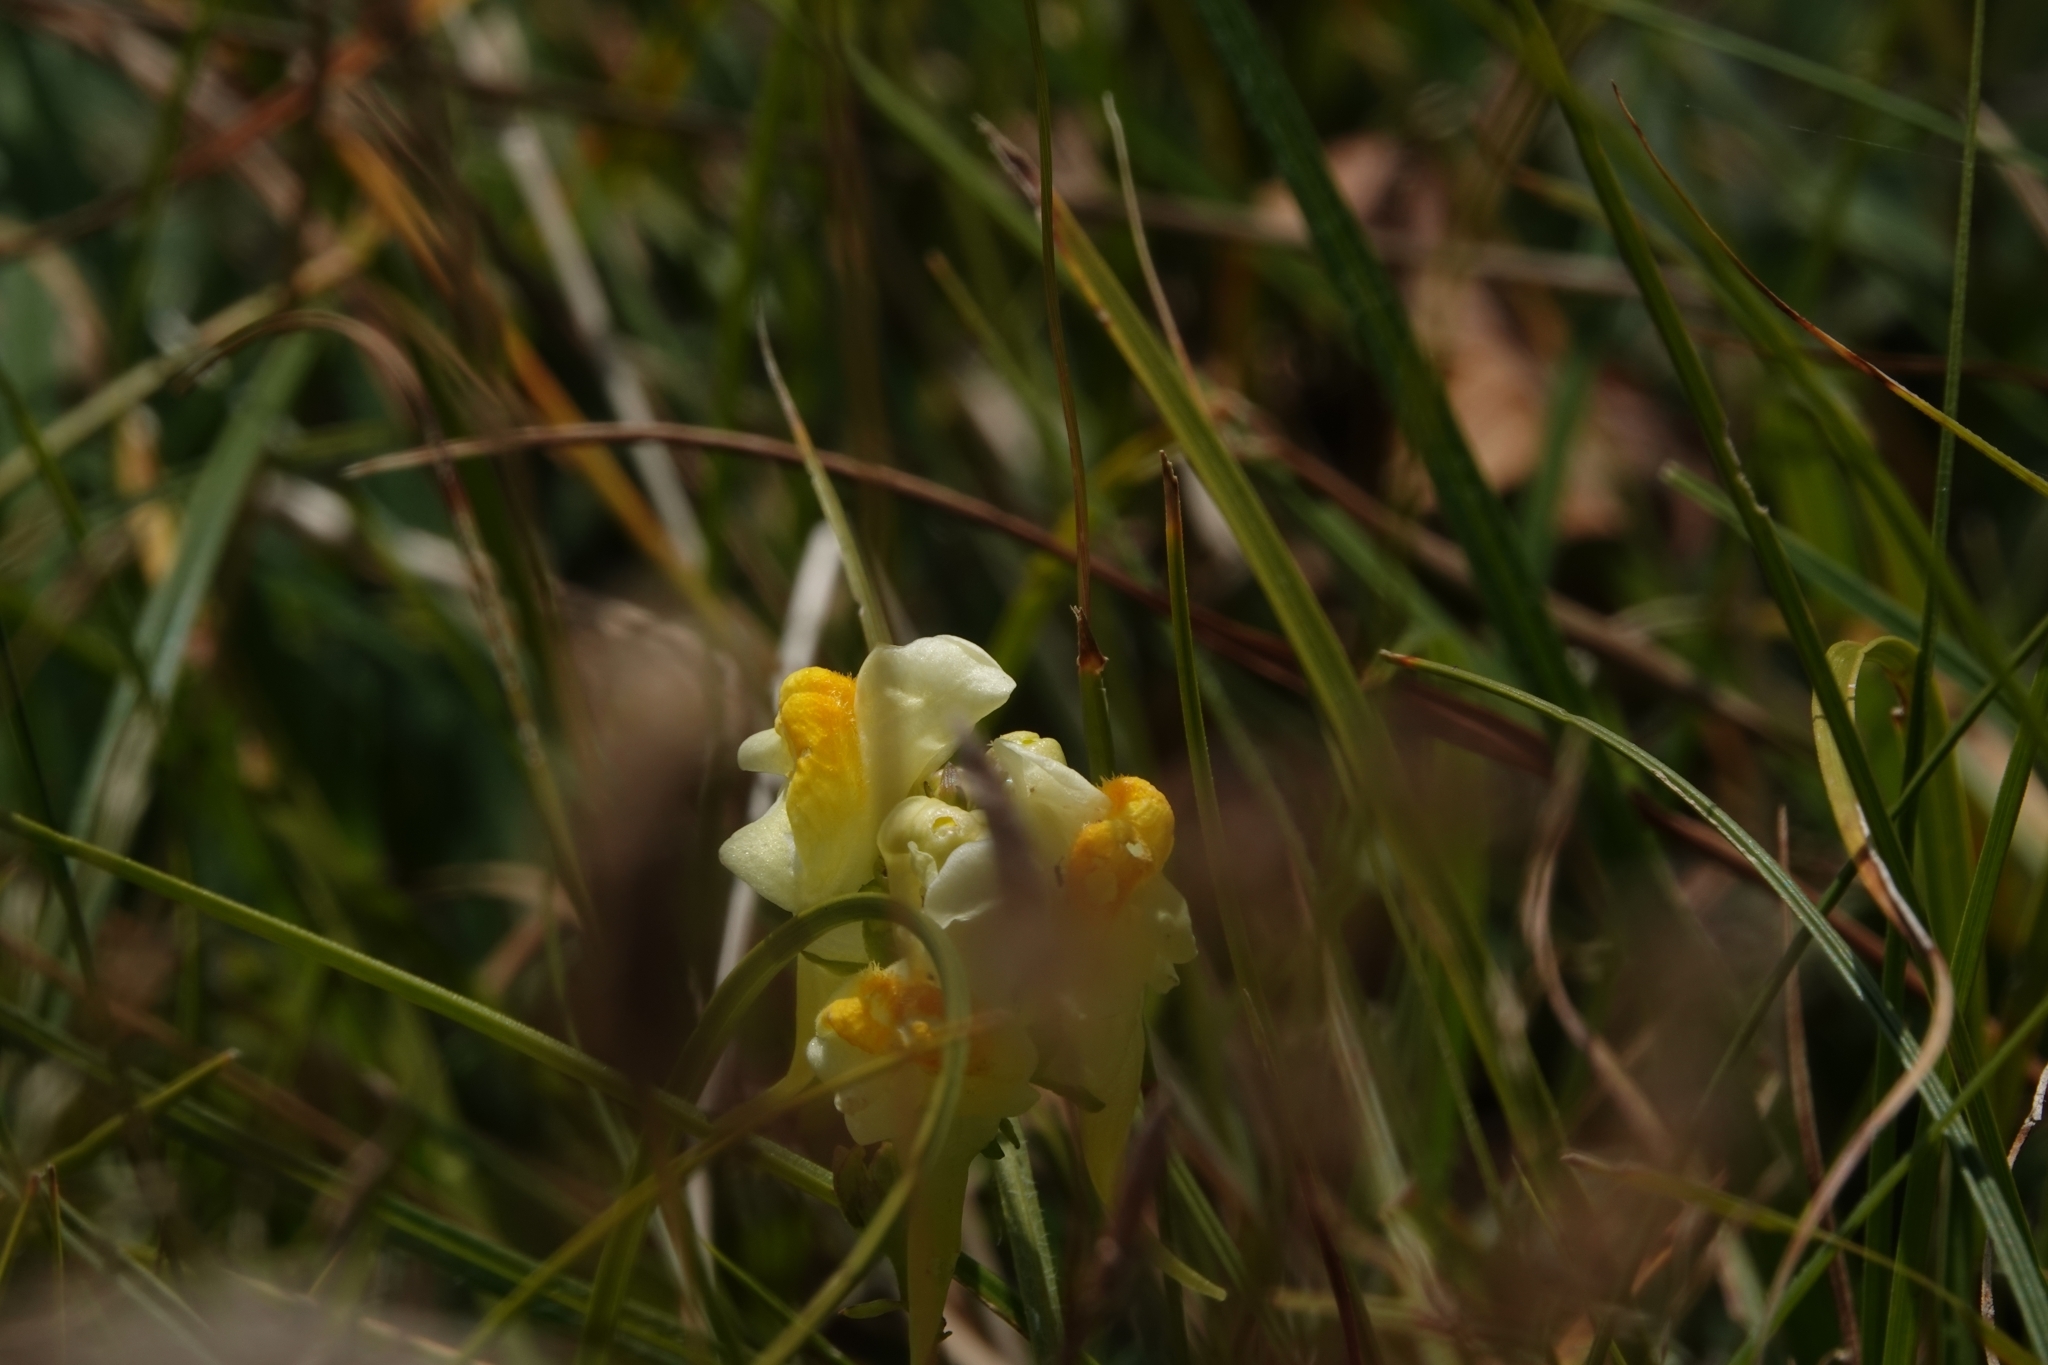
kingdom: Plantae
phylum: Tracheophyta
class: Magnoliopsida
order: Lamiales
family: Plantaginaceae
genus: Linaria
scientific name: Linaria vulgaris
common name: Butter and eggs
